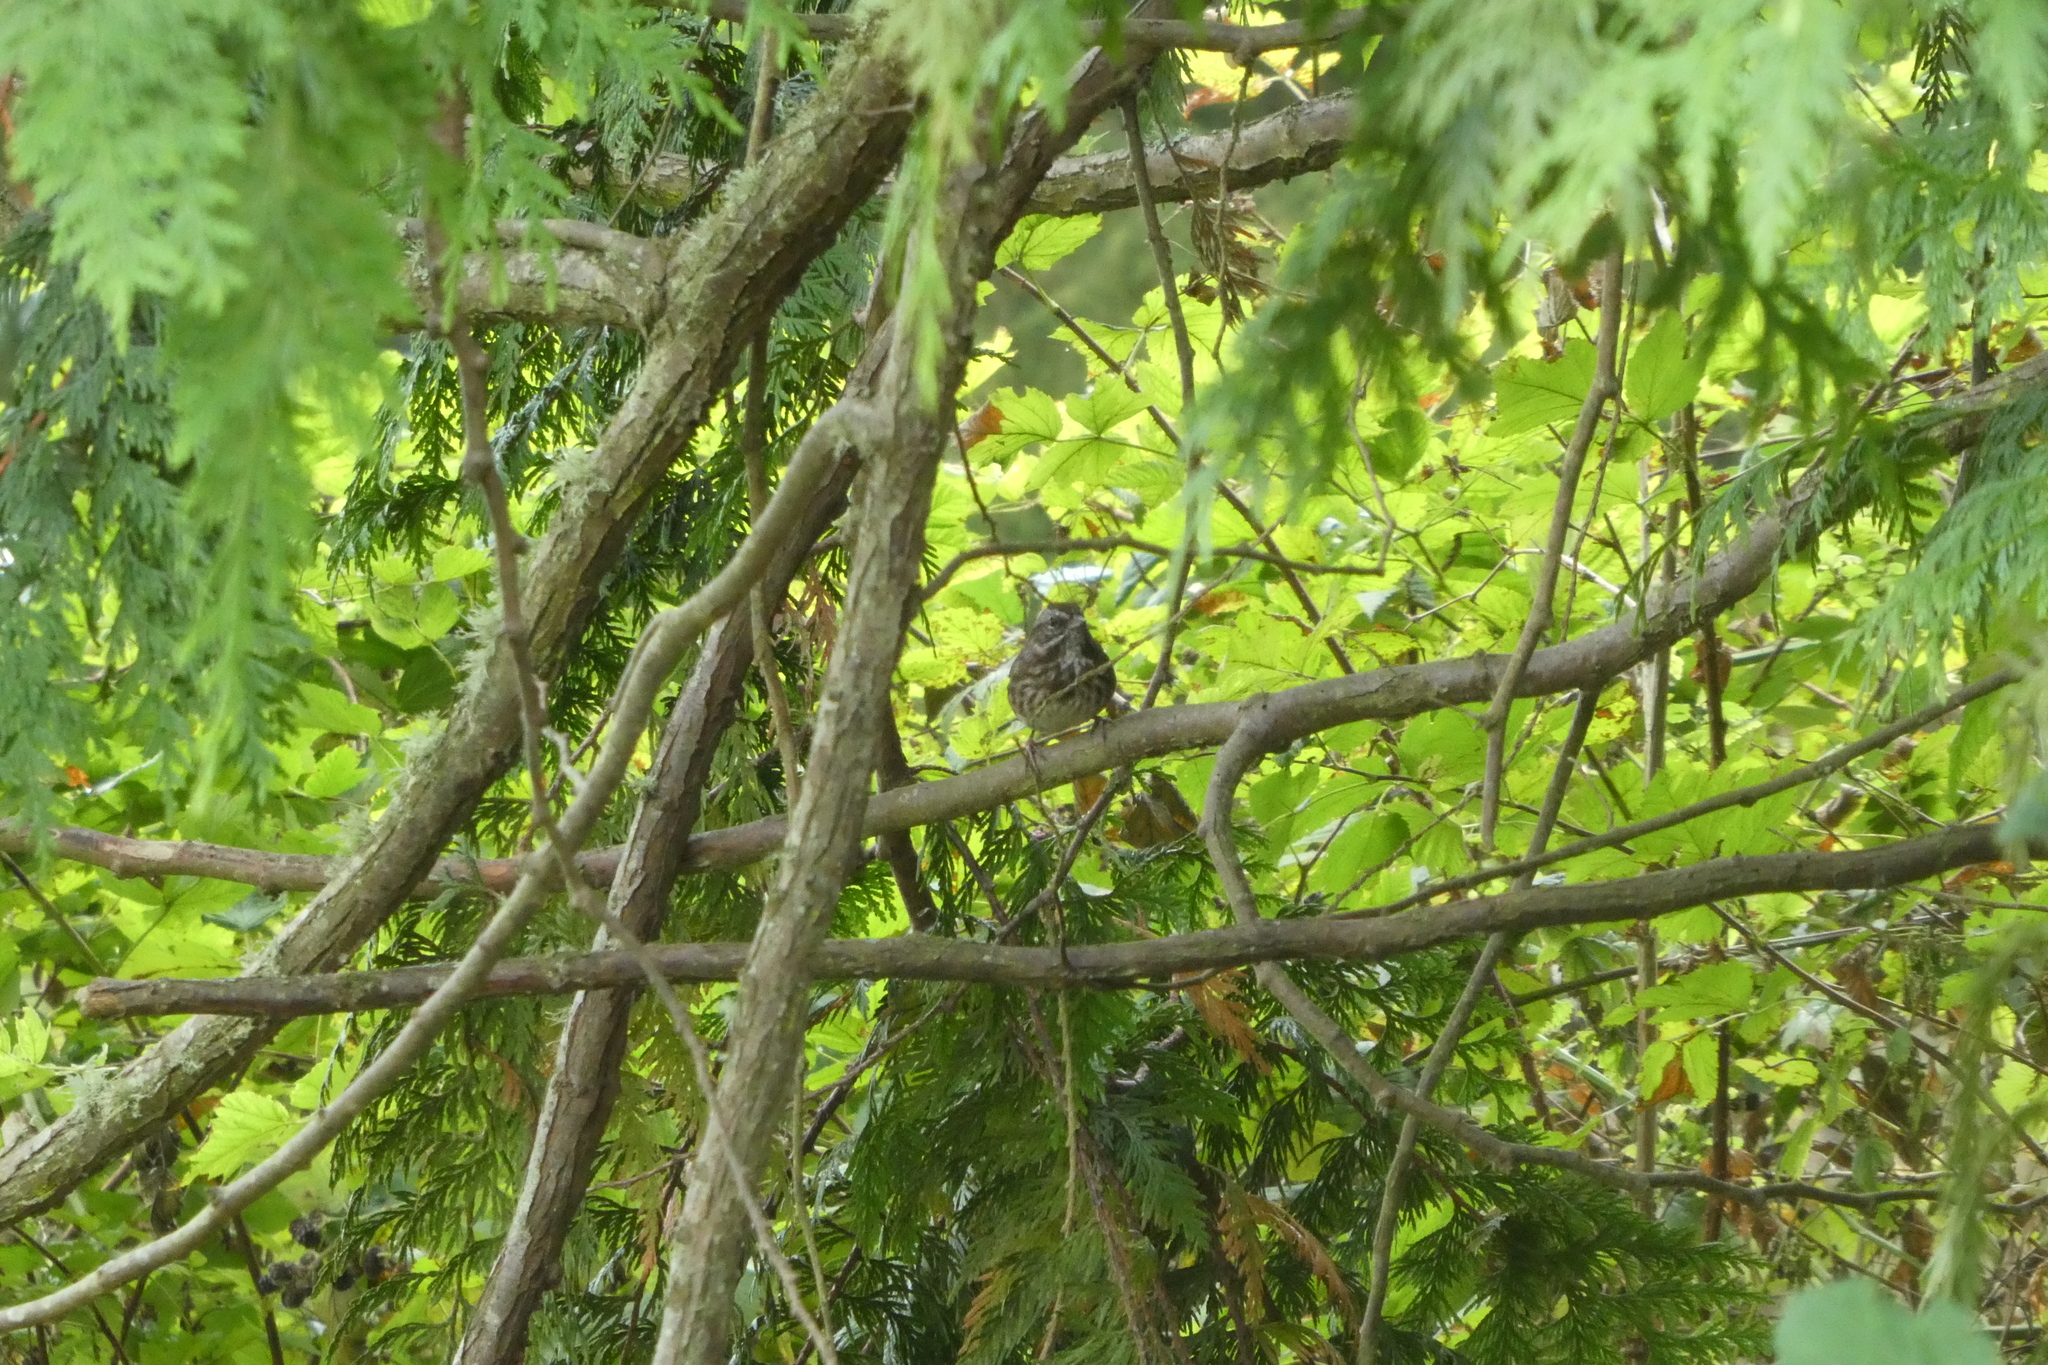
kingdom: Animalia
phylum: Chordata
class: Aves
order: Passeriformes
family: Passerellidae
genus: Melospiza
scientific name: Melospiza melodia
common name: Song sparrow
